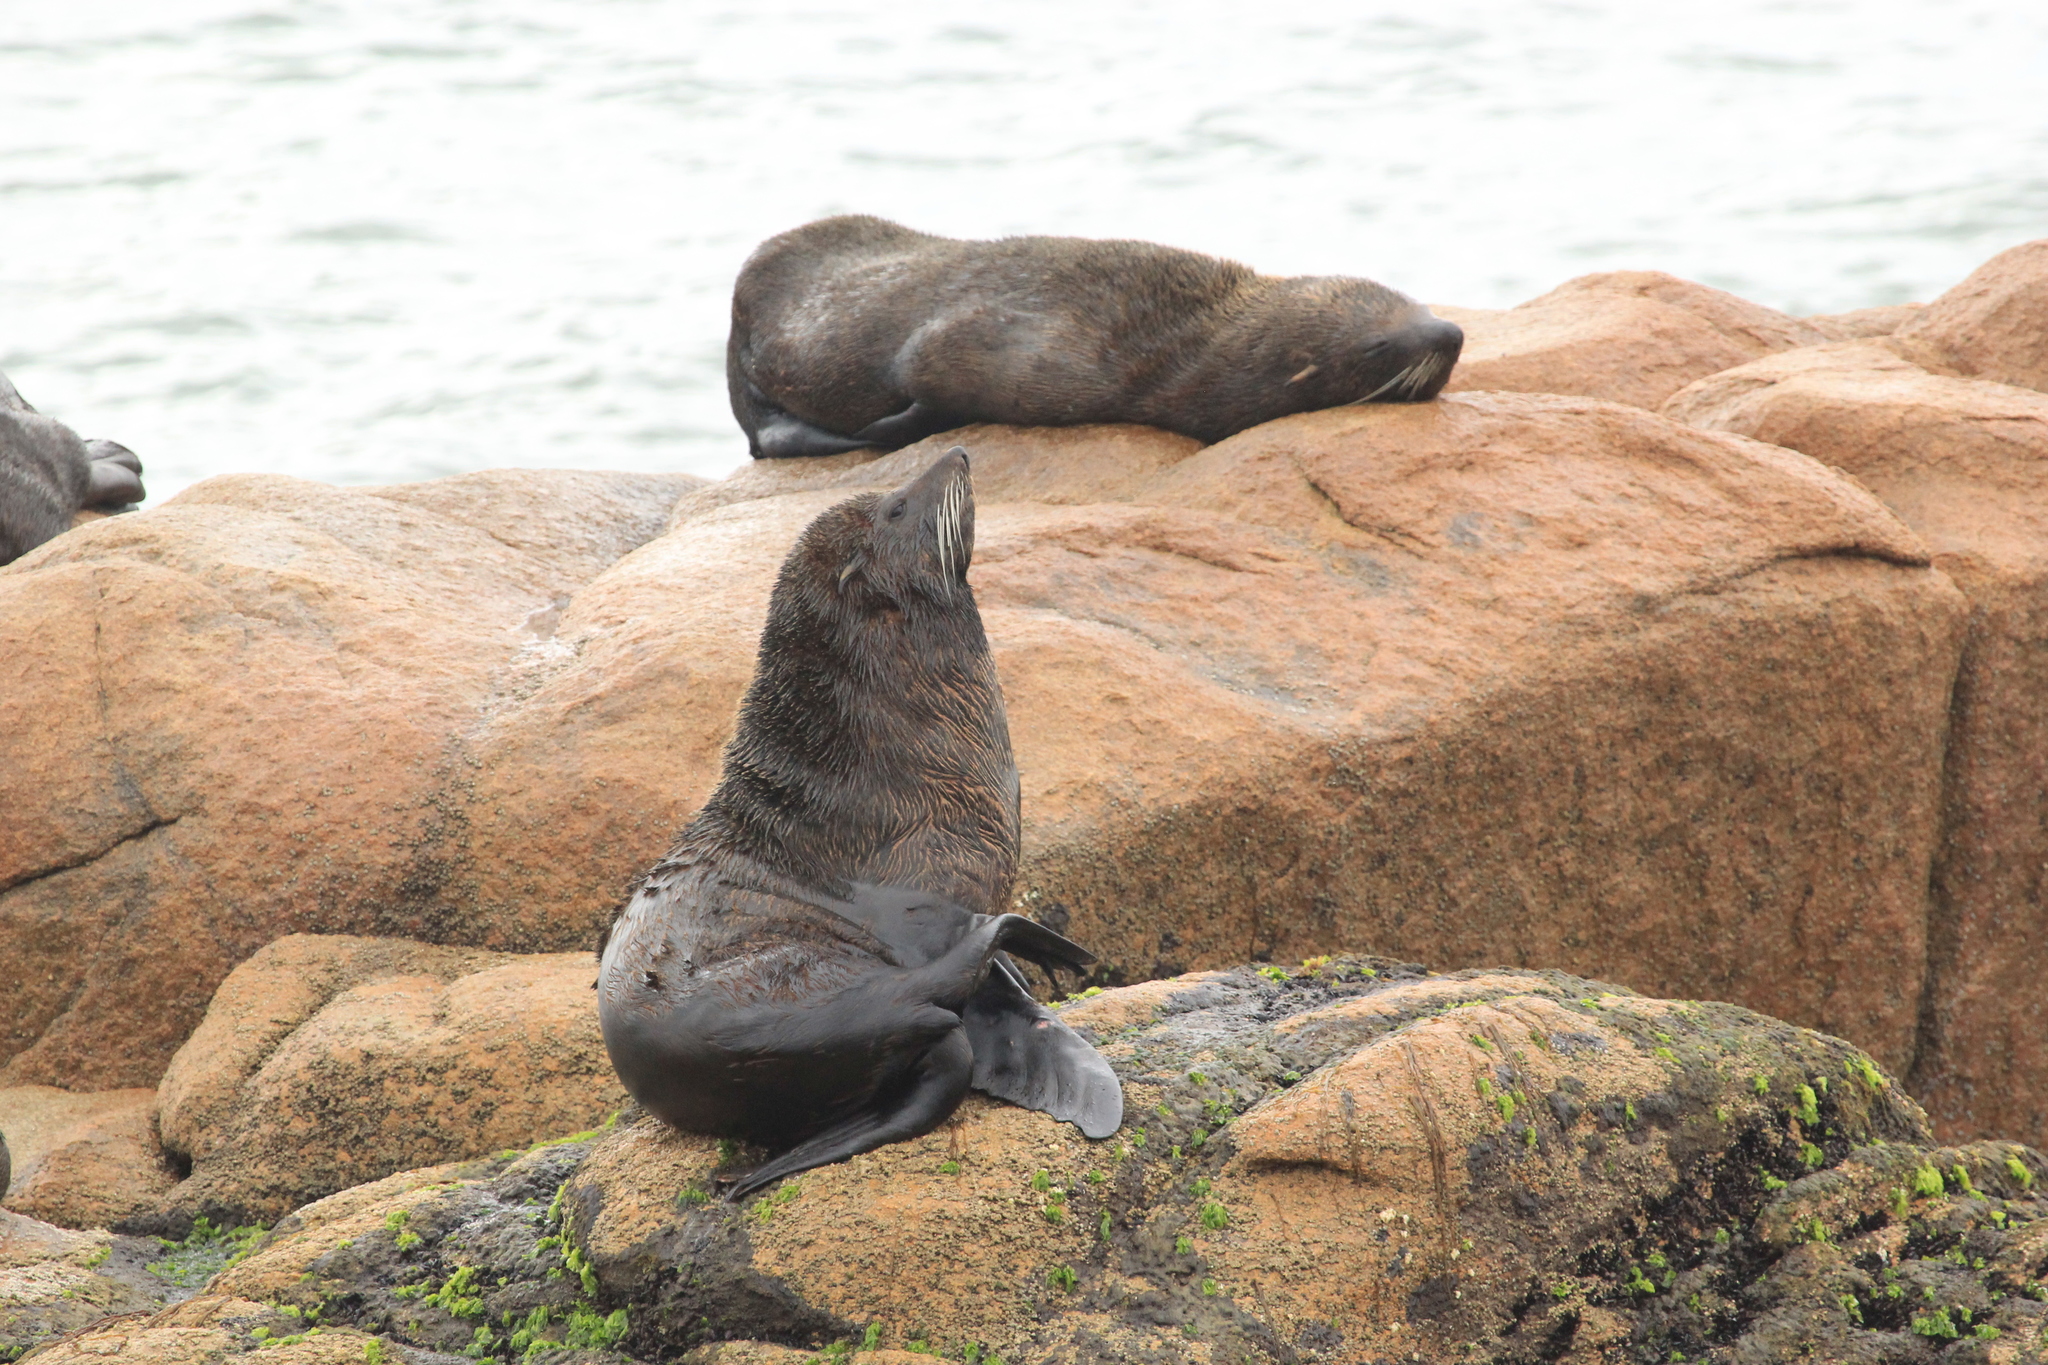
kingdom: Animalia
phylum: Chordata
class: Mammalia
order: Carnivora
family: Otariidae
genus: Arctocephalus
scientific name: Arctocephalus australis
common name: South american fur seal
